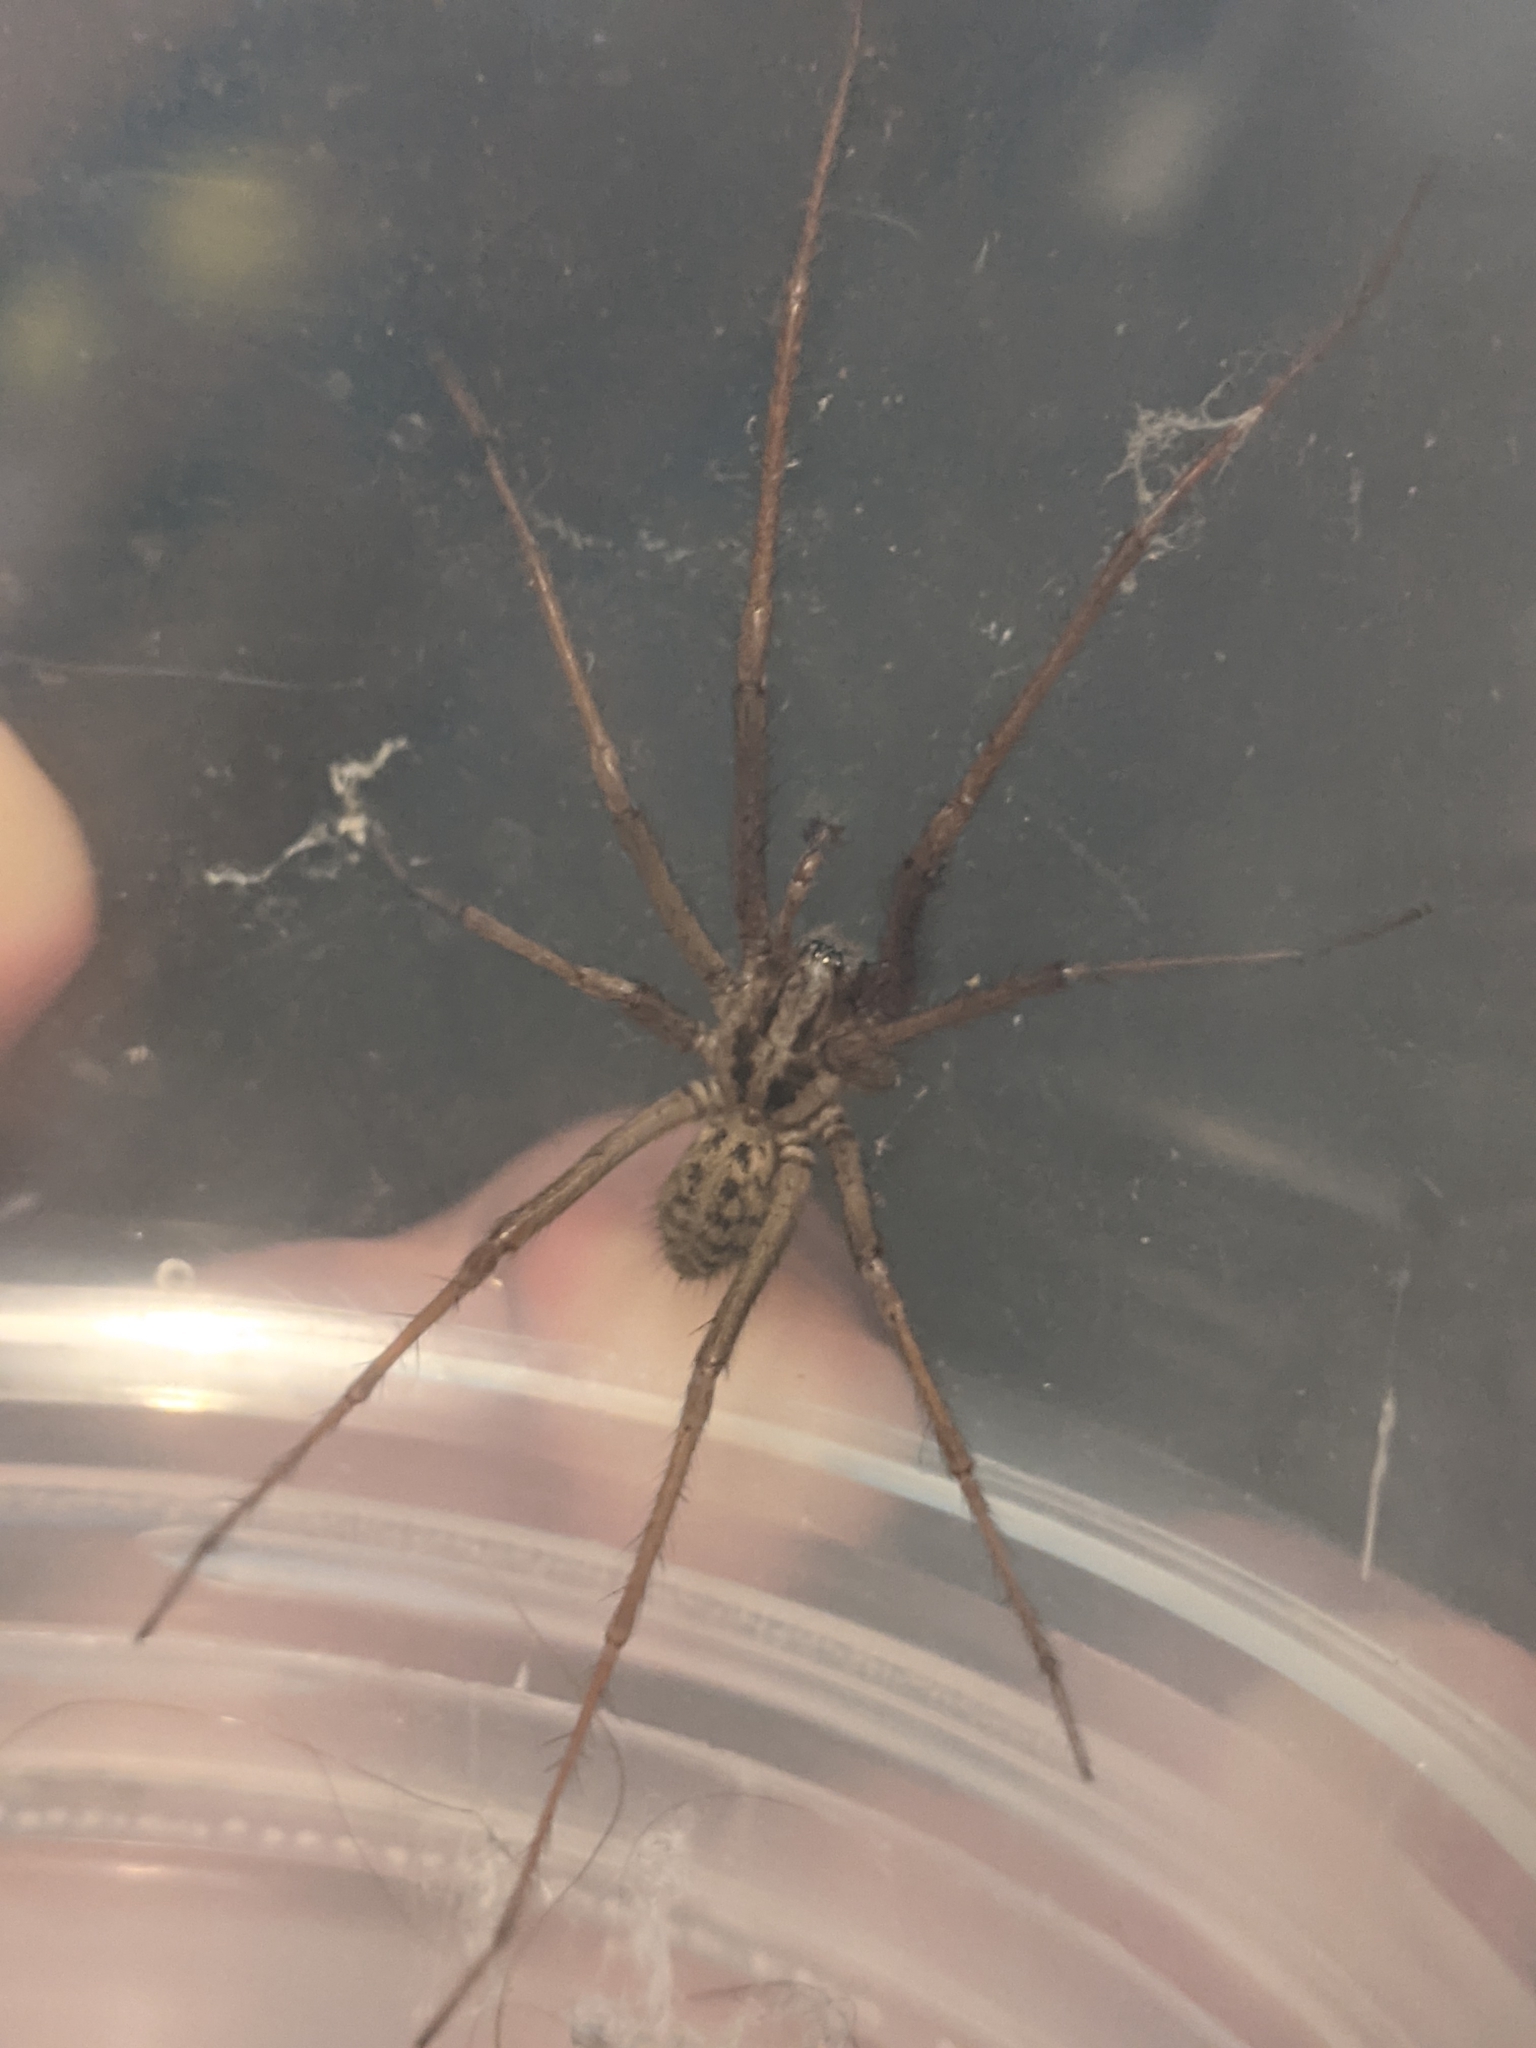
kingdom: Animalia
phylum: Arthropoda
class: Arachnida
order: Araneae
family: Agelenidae
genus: Eratigena
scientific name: Eratigena duellica
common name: Giant house spider
